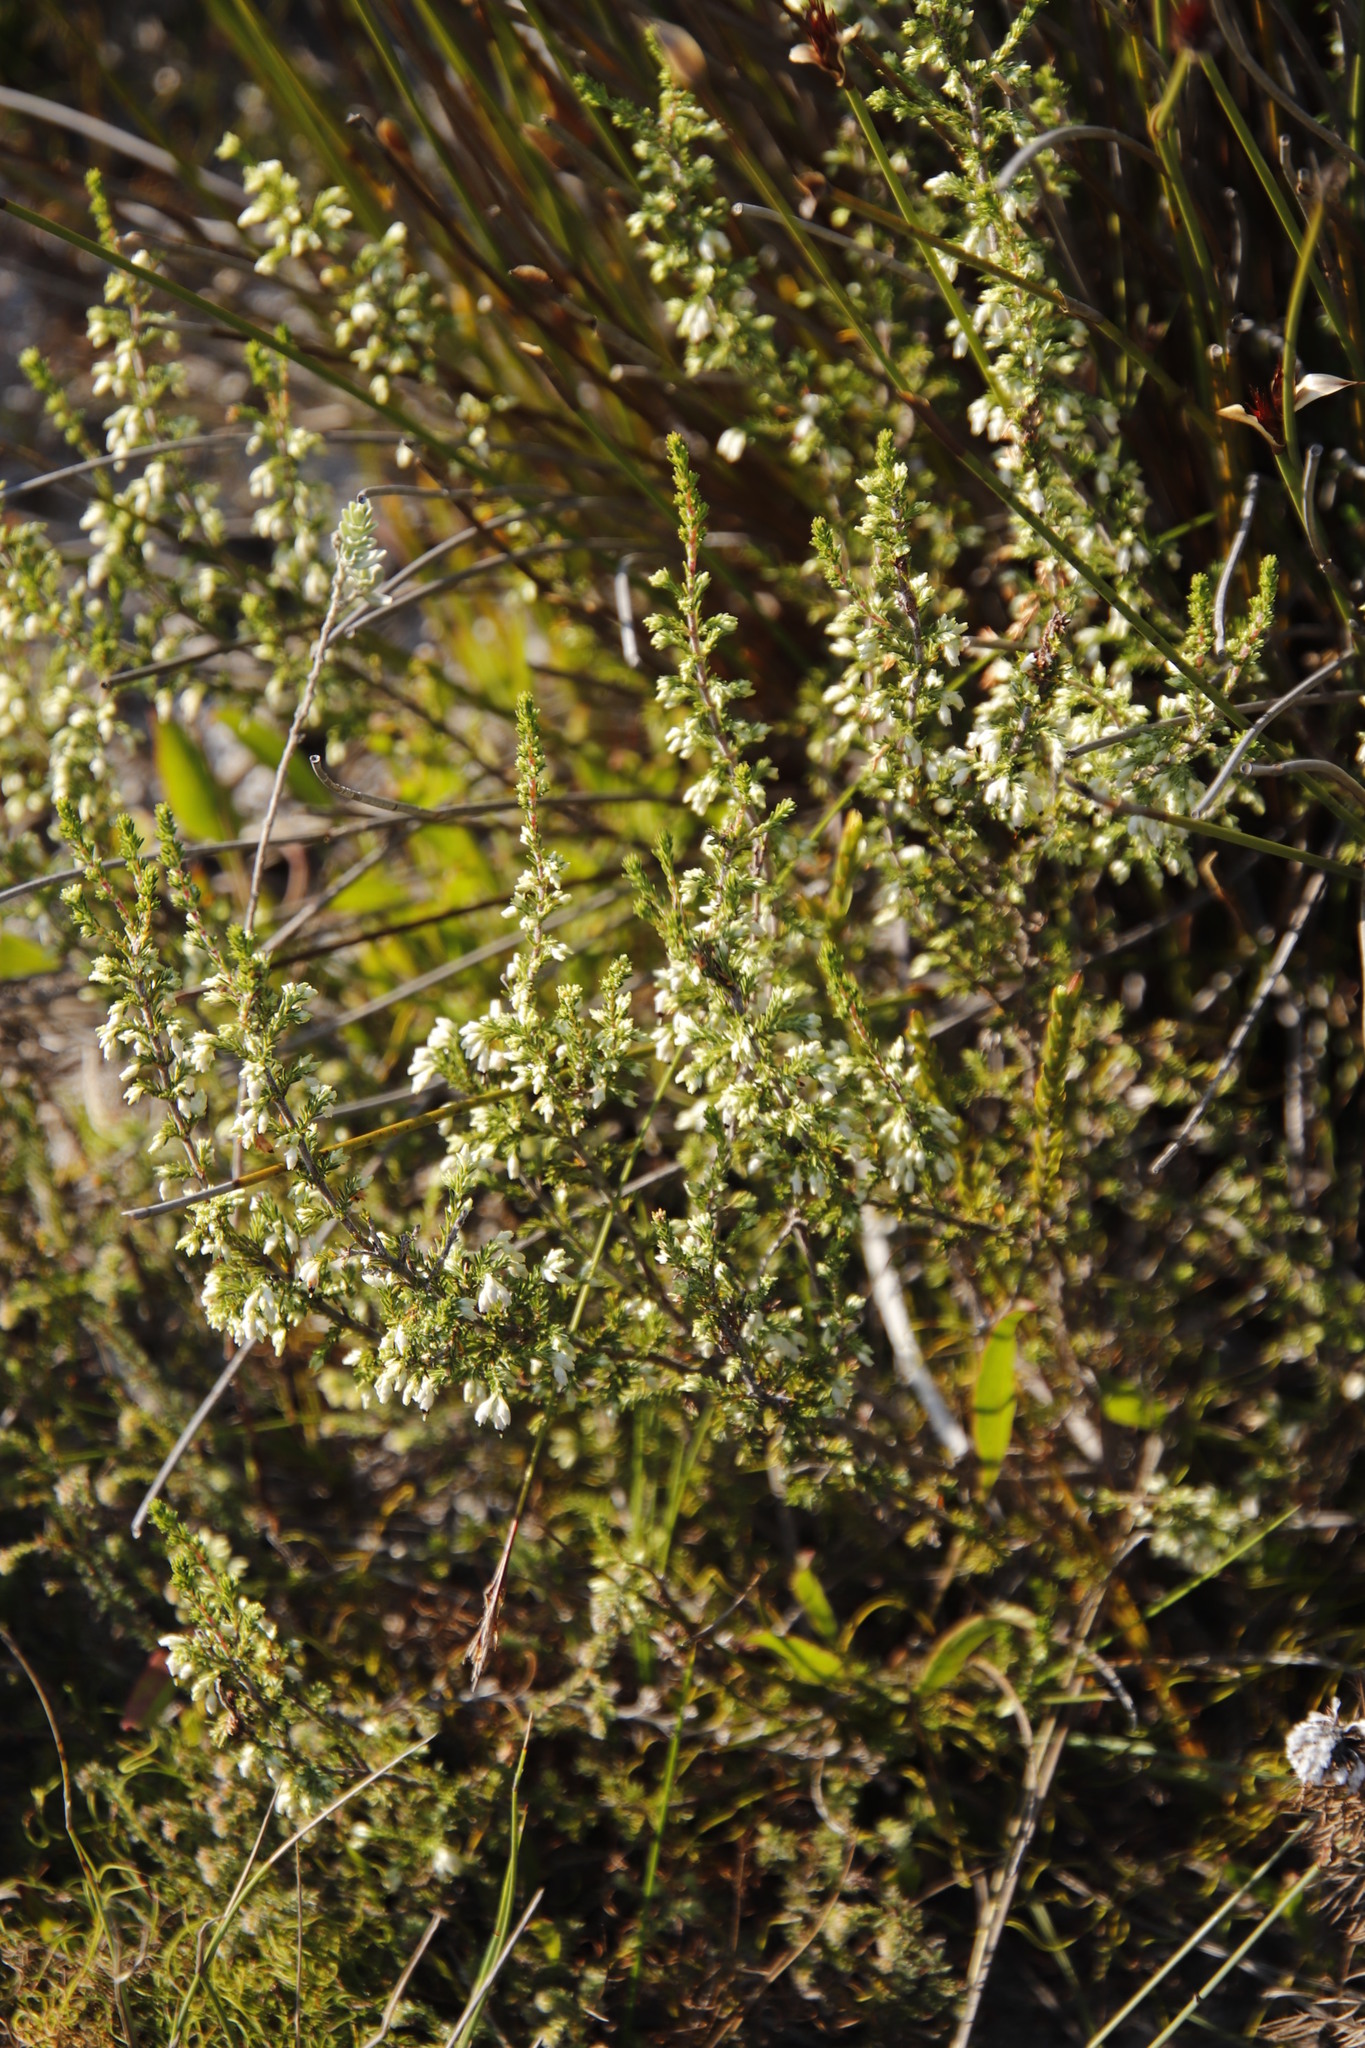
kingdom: Plantae
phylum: Tracheophyta
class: Magnoliopsida
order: Ericales
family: Ericaceae
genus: Erica
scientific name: Erica imbricata
